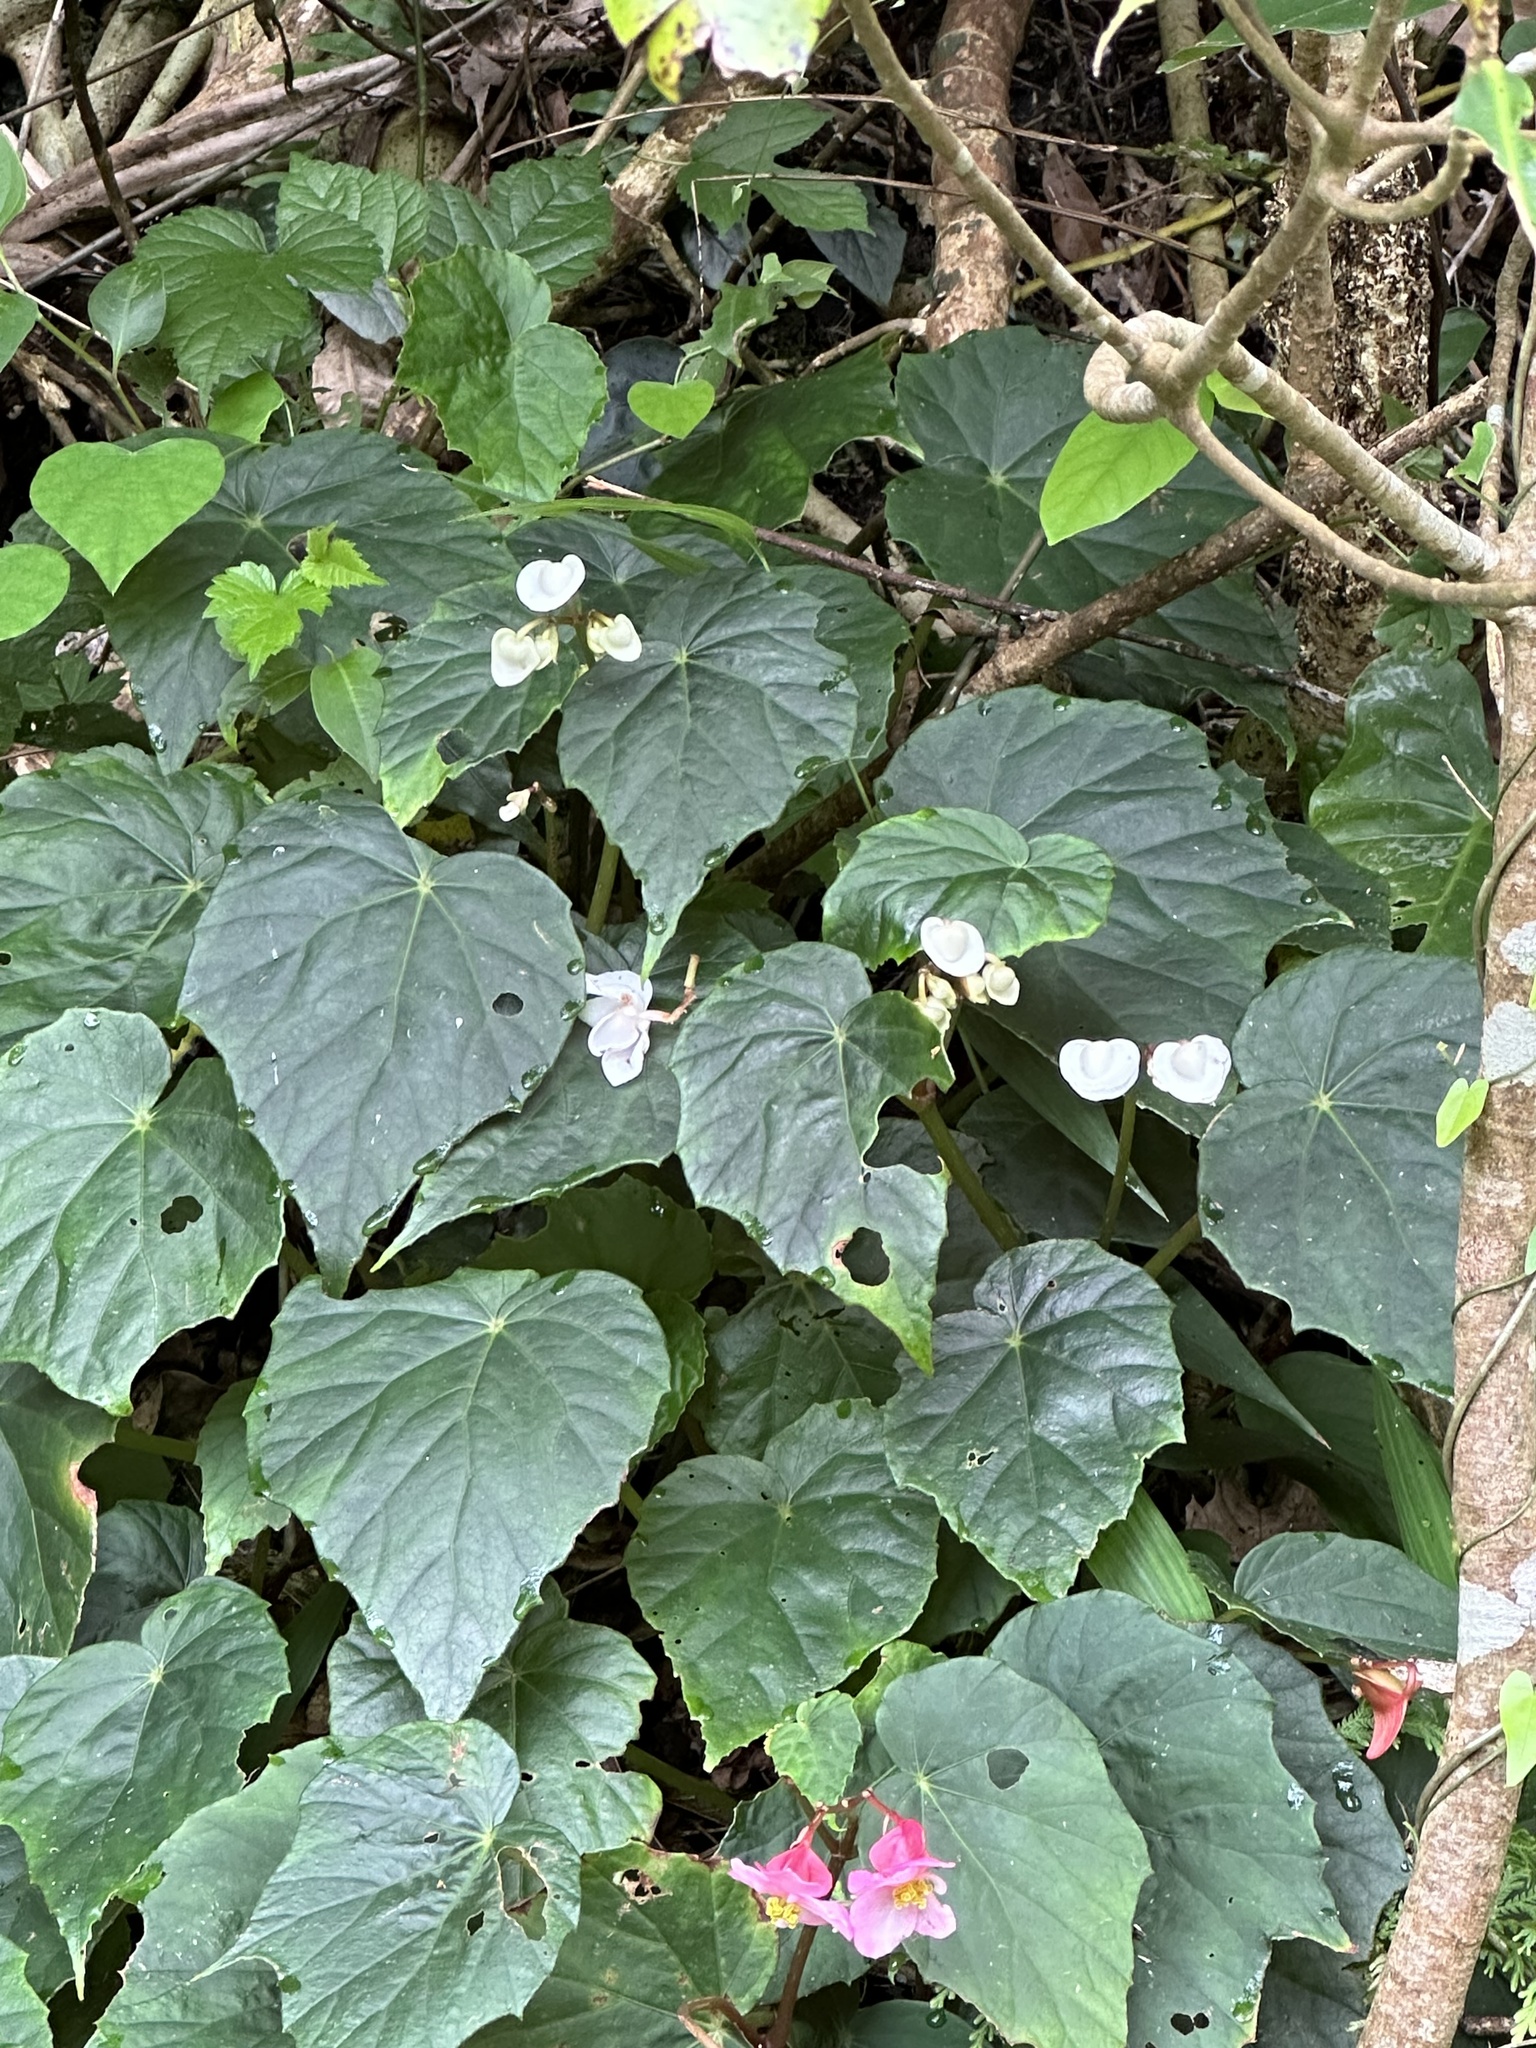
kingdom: Plantae
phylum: Tracheophyta
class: Magnoliopsida
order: Cucurbitales
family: Begoniaceae
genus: Begonia
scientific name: Begonia formosana
